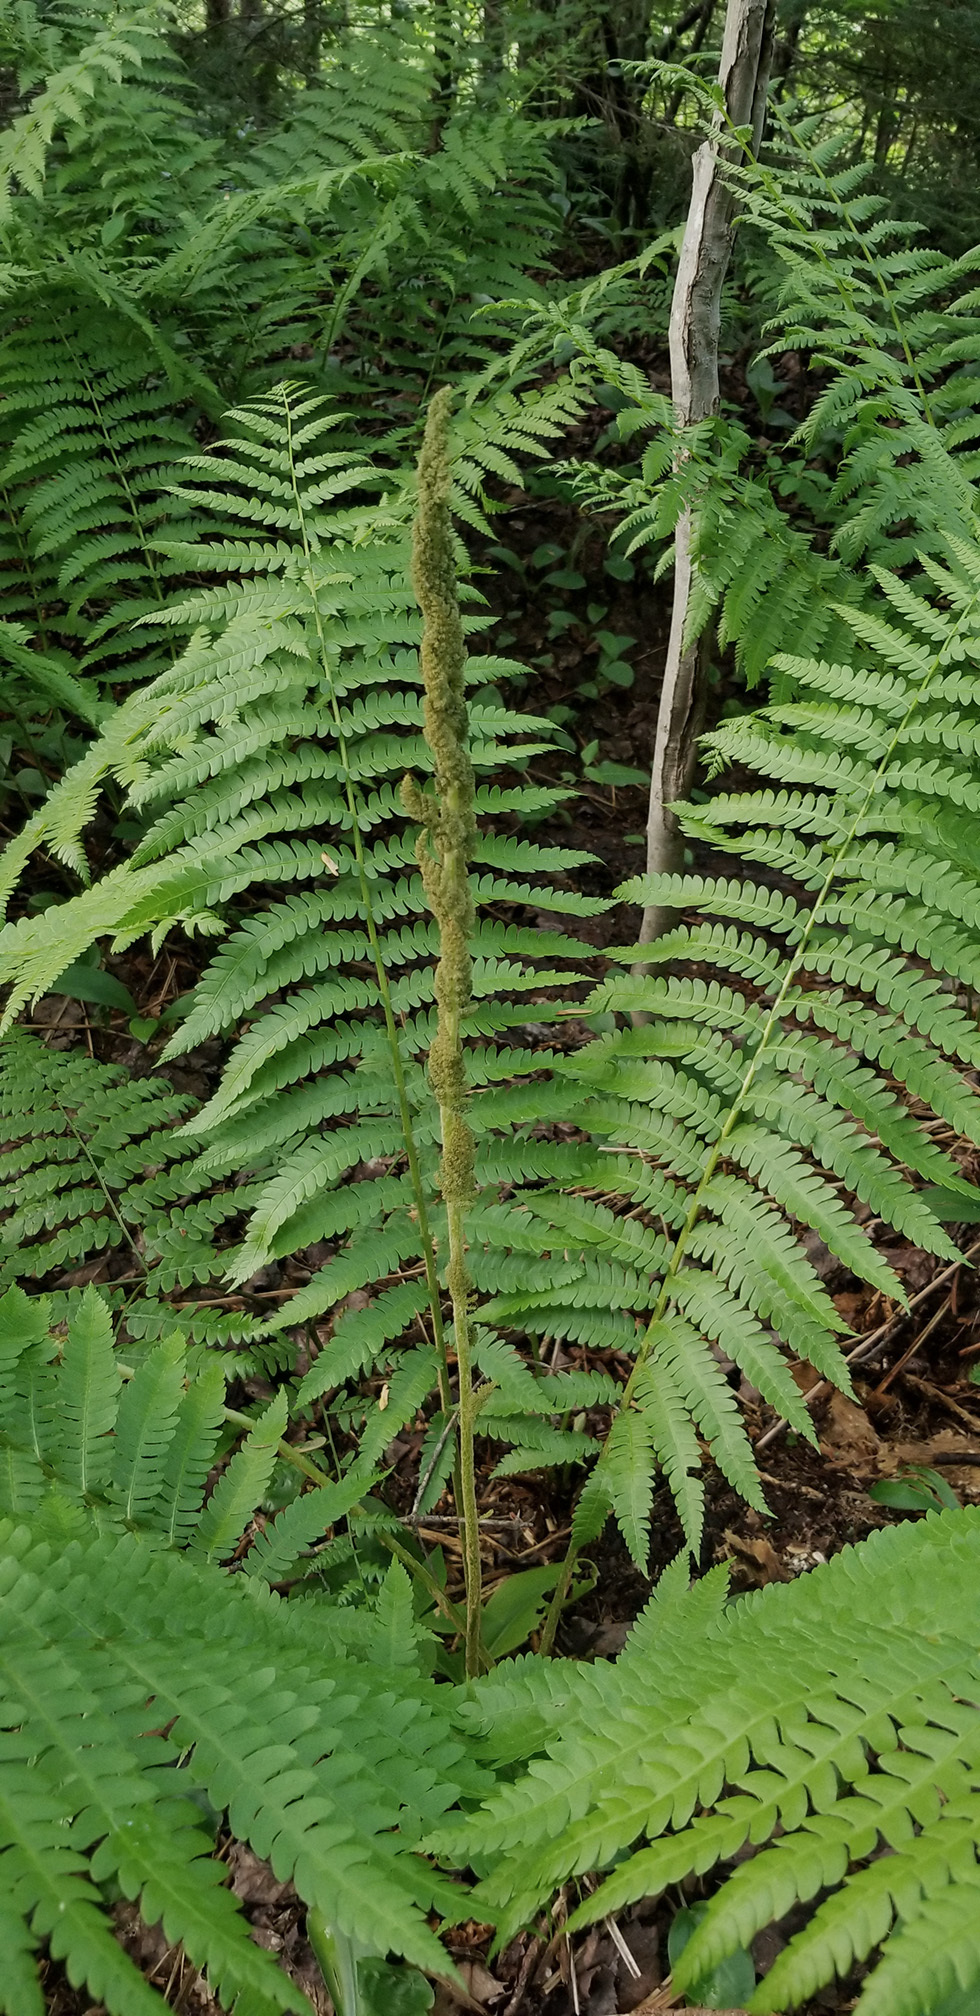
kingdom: Plantae
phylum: Tracheophyta
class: Polypodiopsida
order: Osmundales
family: Osmundaceae
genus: Osmundastrum
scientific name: Osmundastrum cinnamomeum
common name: Cinnamon fern
